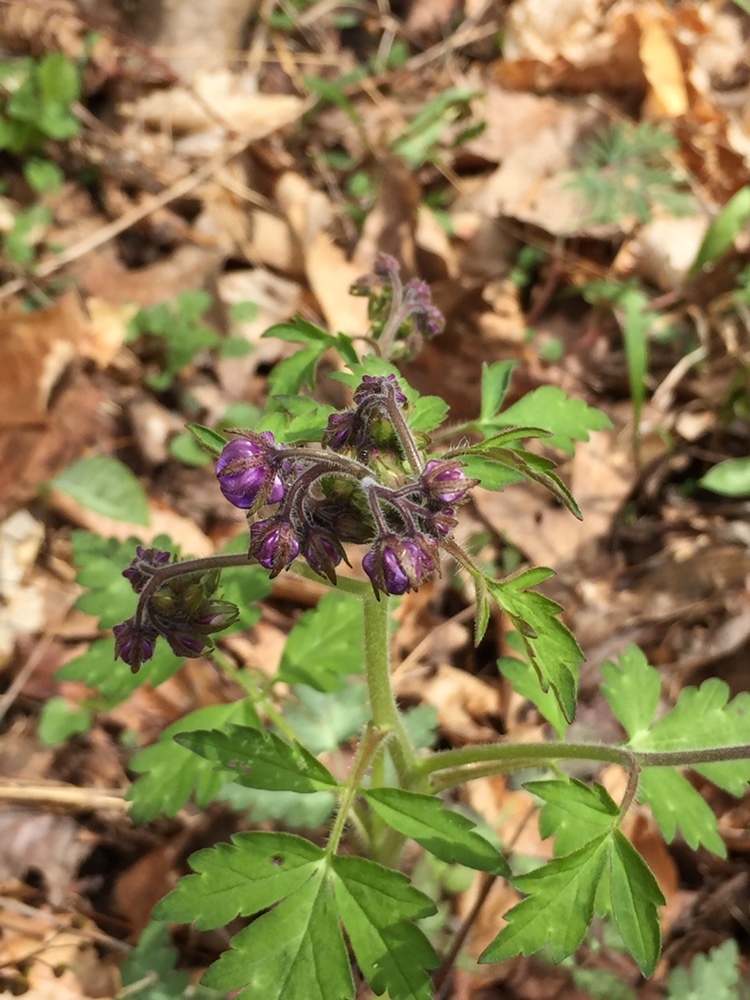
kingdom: Plantae
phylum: Tracheophyta
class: Magnoliopsida
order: Boraginales
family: Hydrophyllaceae
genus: Phacelia
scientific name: Phacelia bipinnatifida
